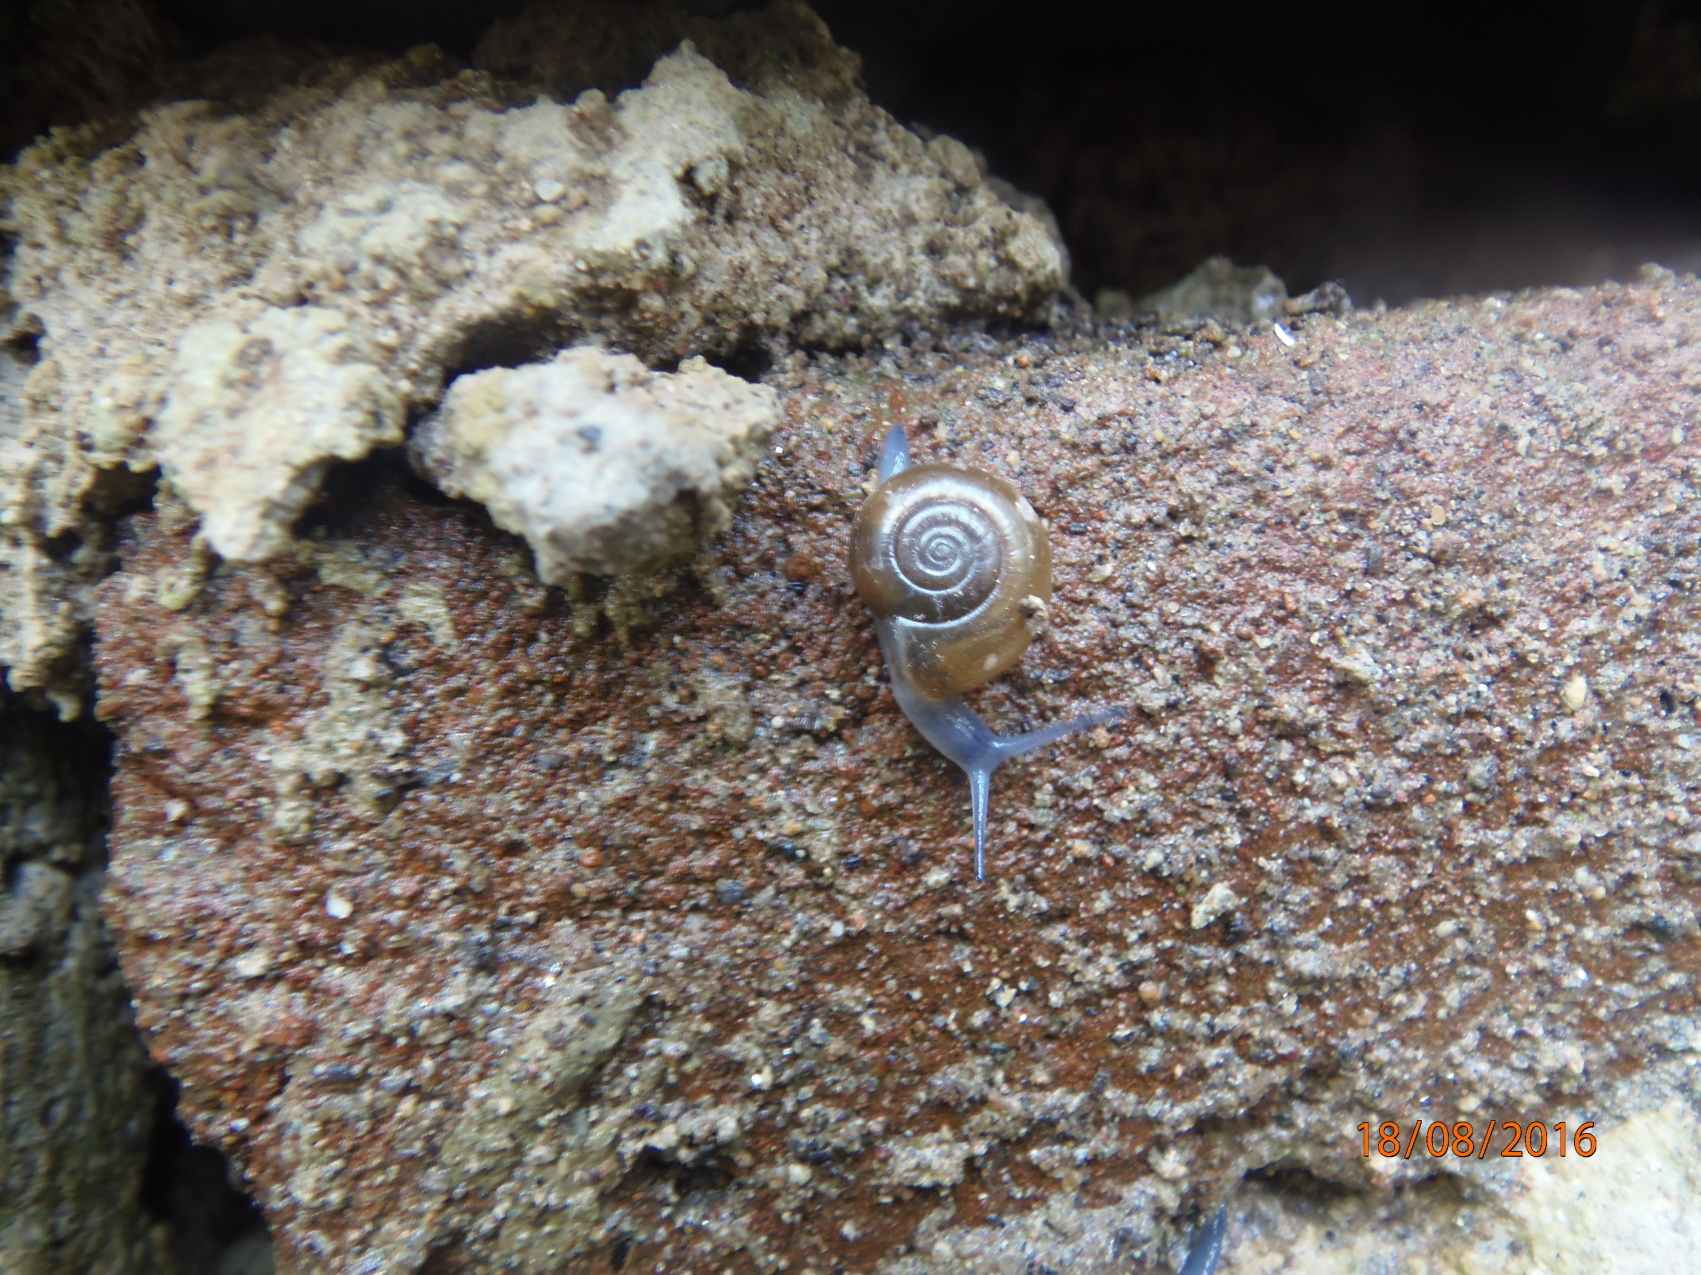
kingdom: Animalia
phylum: Mollusca
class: Gastropoda
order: Stylommatophora
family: Oxychilidae
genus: Oxychilus
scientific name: Oxychilus
